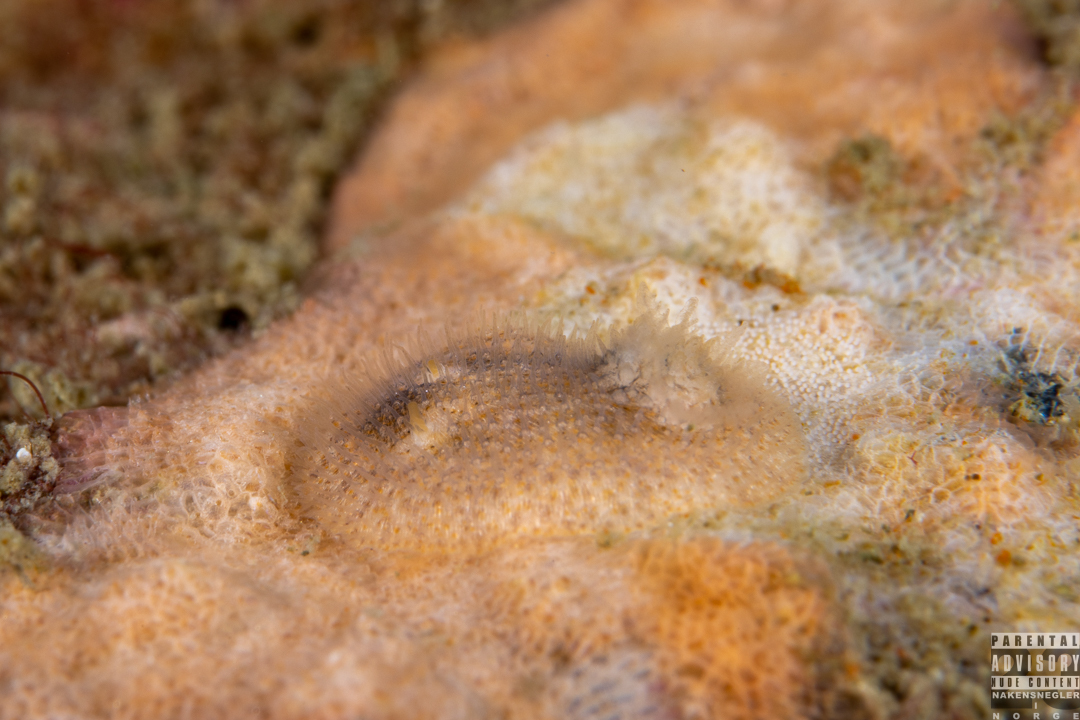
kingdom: Animalia
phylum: Mollusca
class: Gastropoda
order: Nudibranchia
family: Onchidorididae
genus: Idaliadoris
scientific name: Idaliadoris depressa
